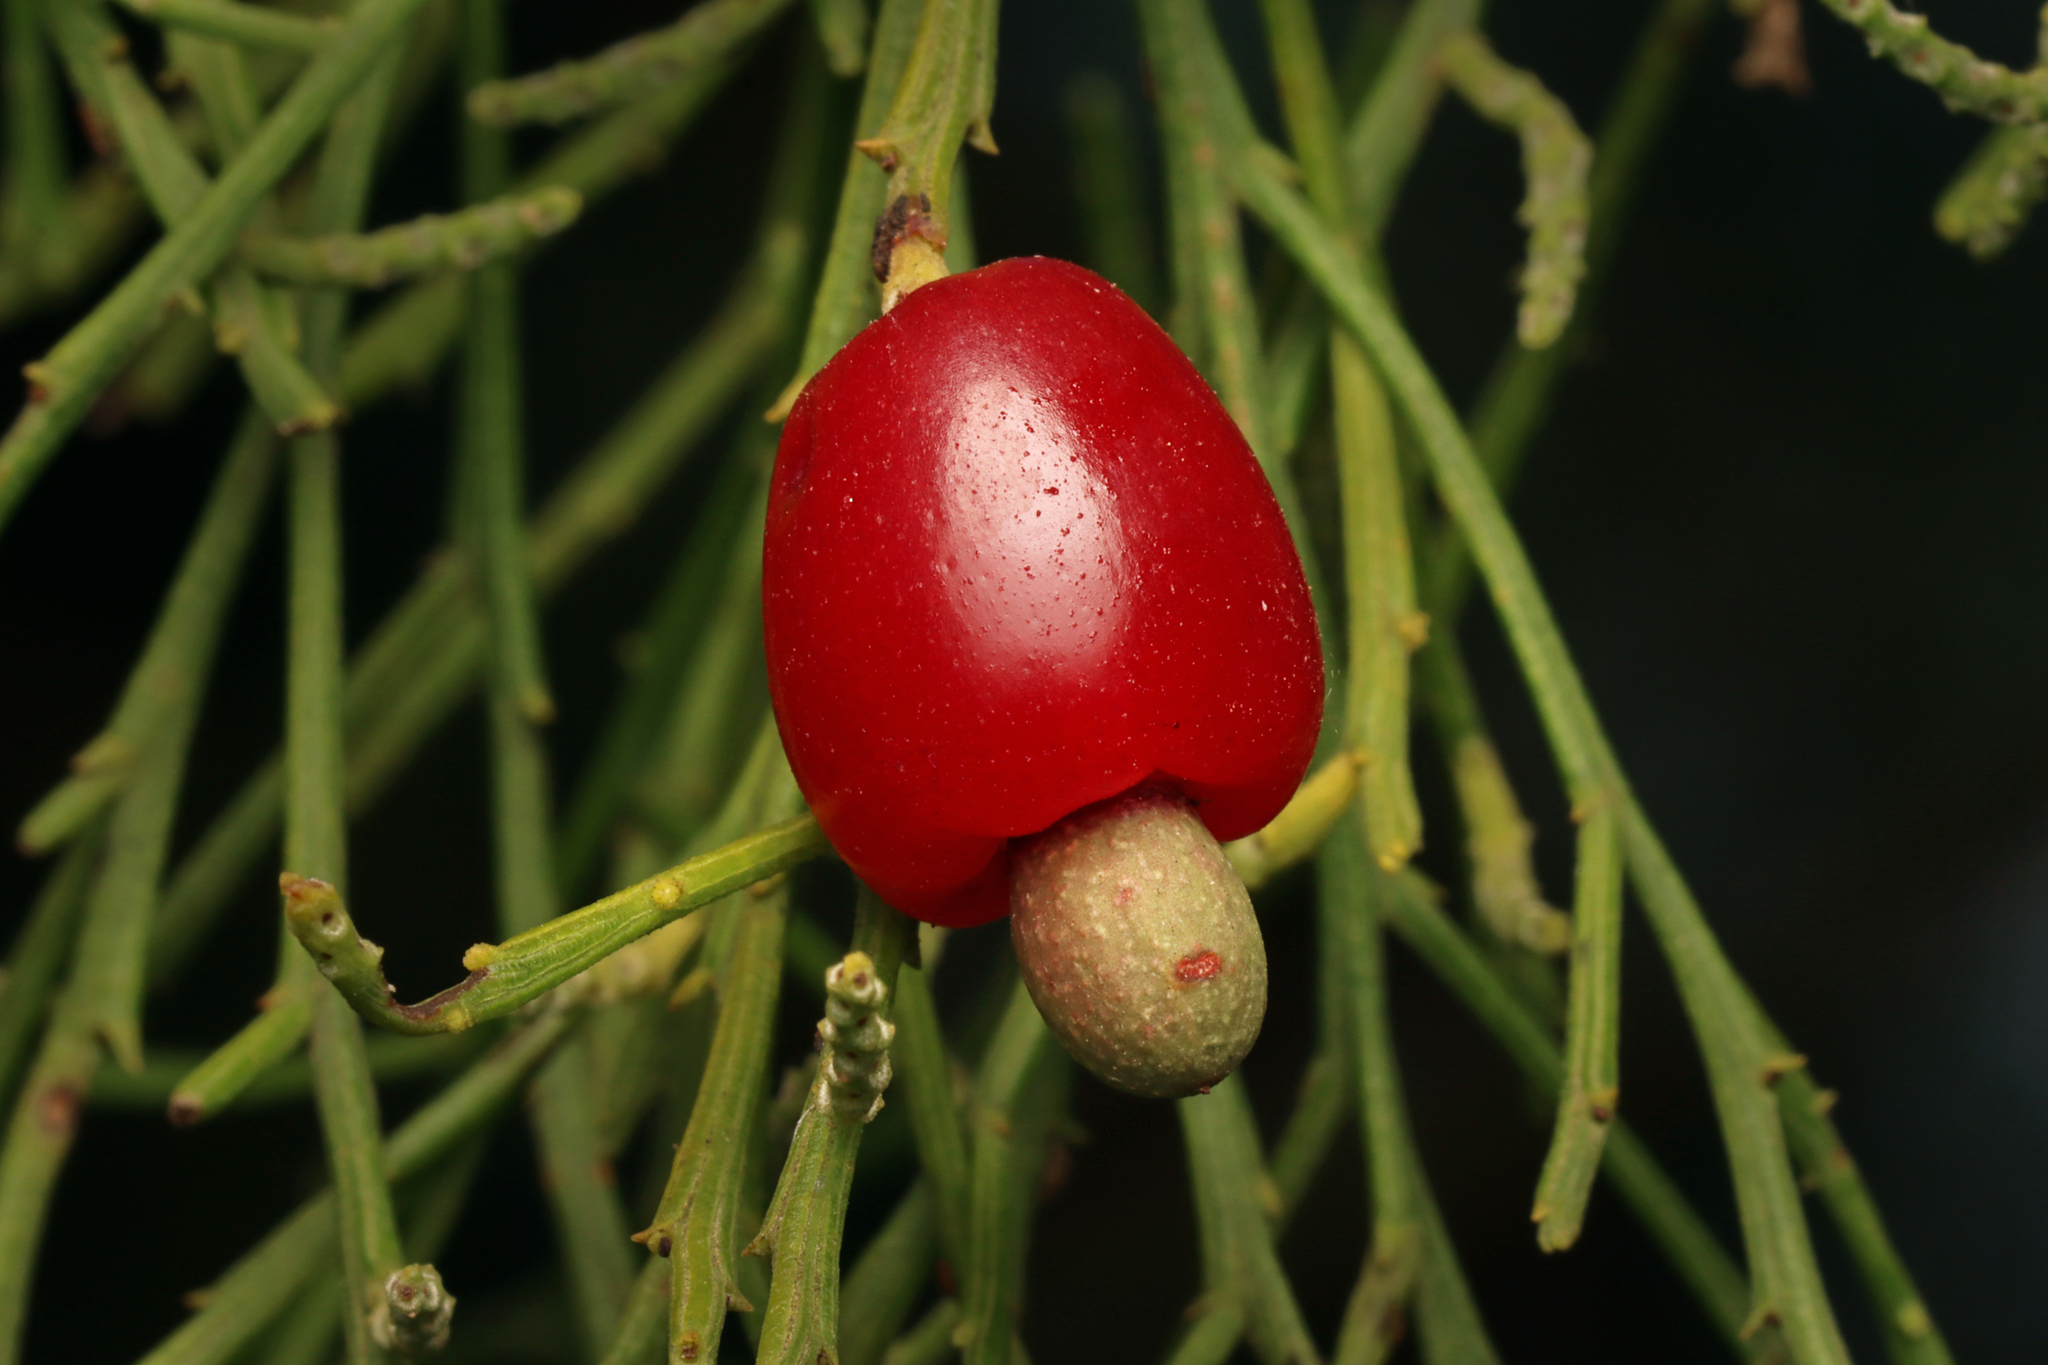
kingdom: Plantae
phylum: Tracheophyta
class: Magnoliopsida
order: Santalales
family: Santalaceae
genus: Exocarpos
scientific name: Exocarpos cupressiformis
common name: Cherry ballart
